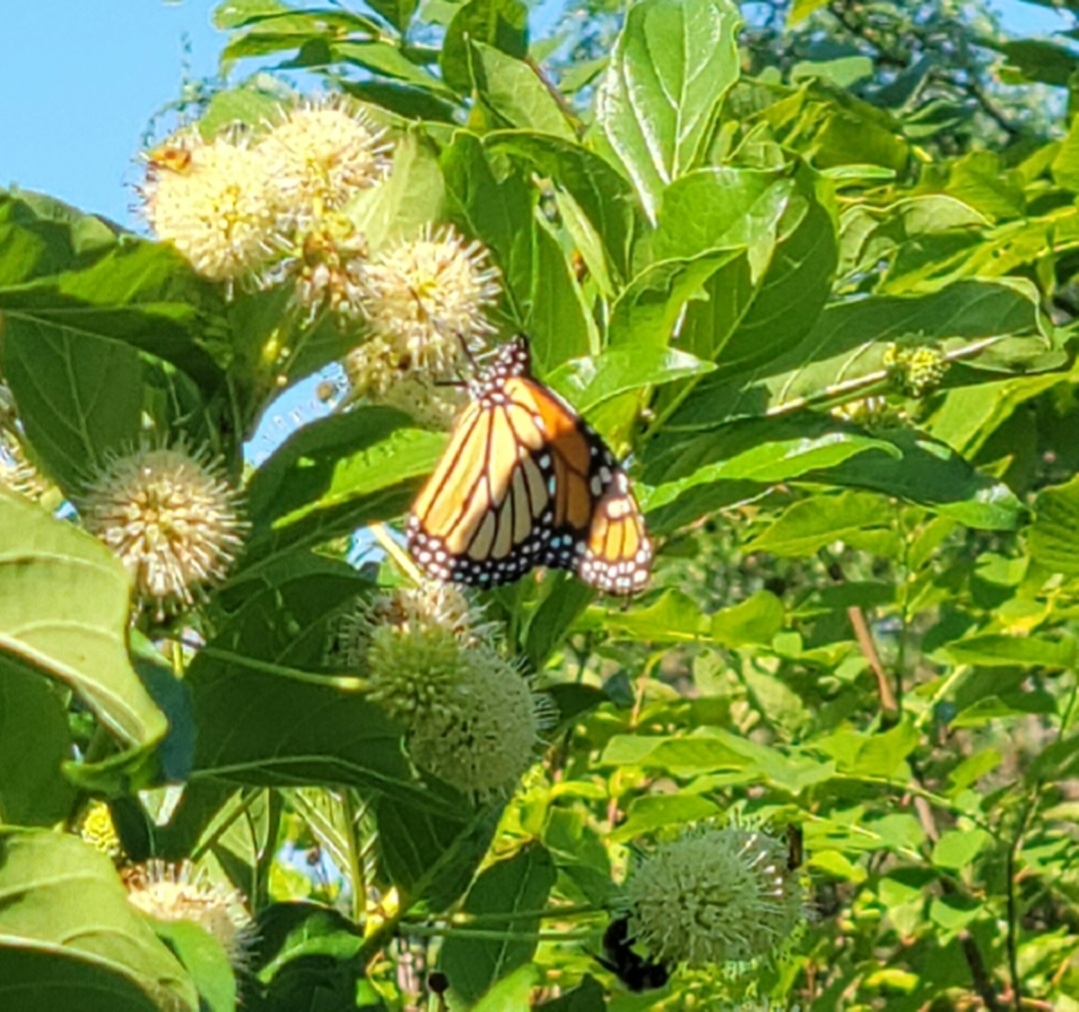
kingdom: Animalia
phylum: Arthropoda
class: Insecta
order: Lepidoptera
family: Nymphalidae
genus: Danaus
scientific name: Danaus plexippus
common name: Monarch
